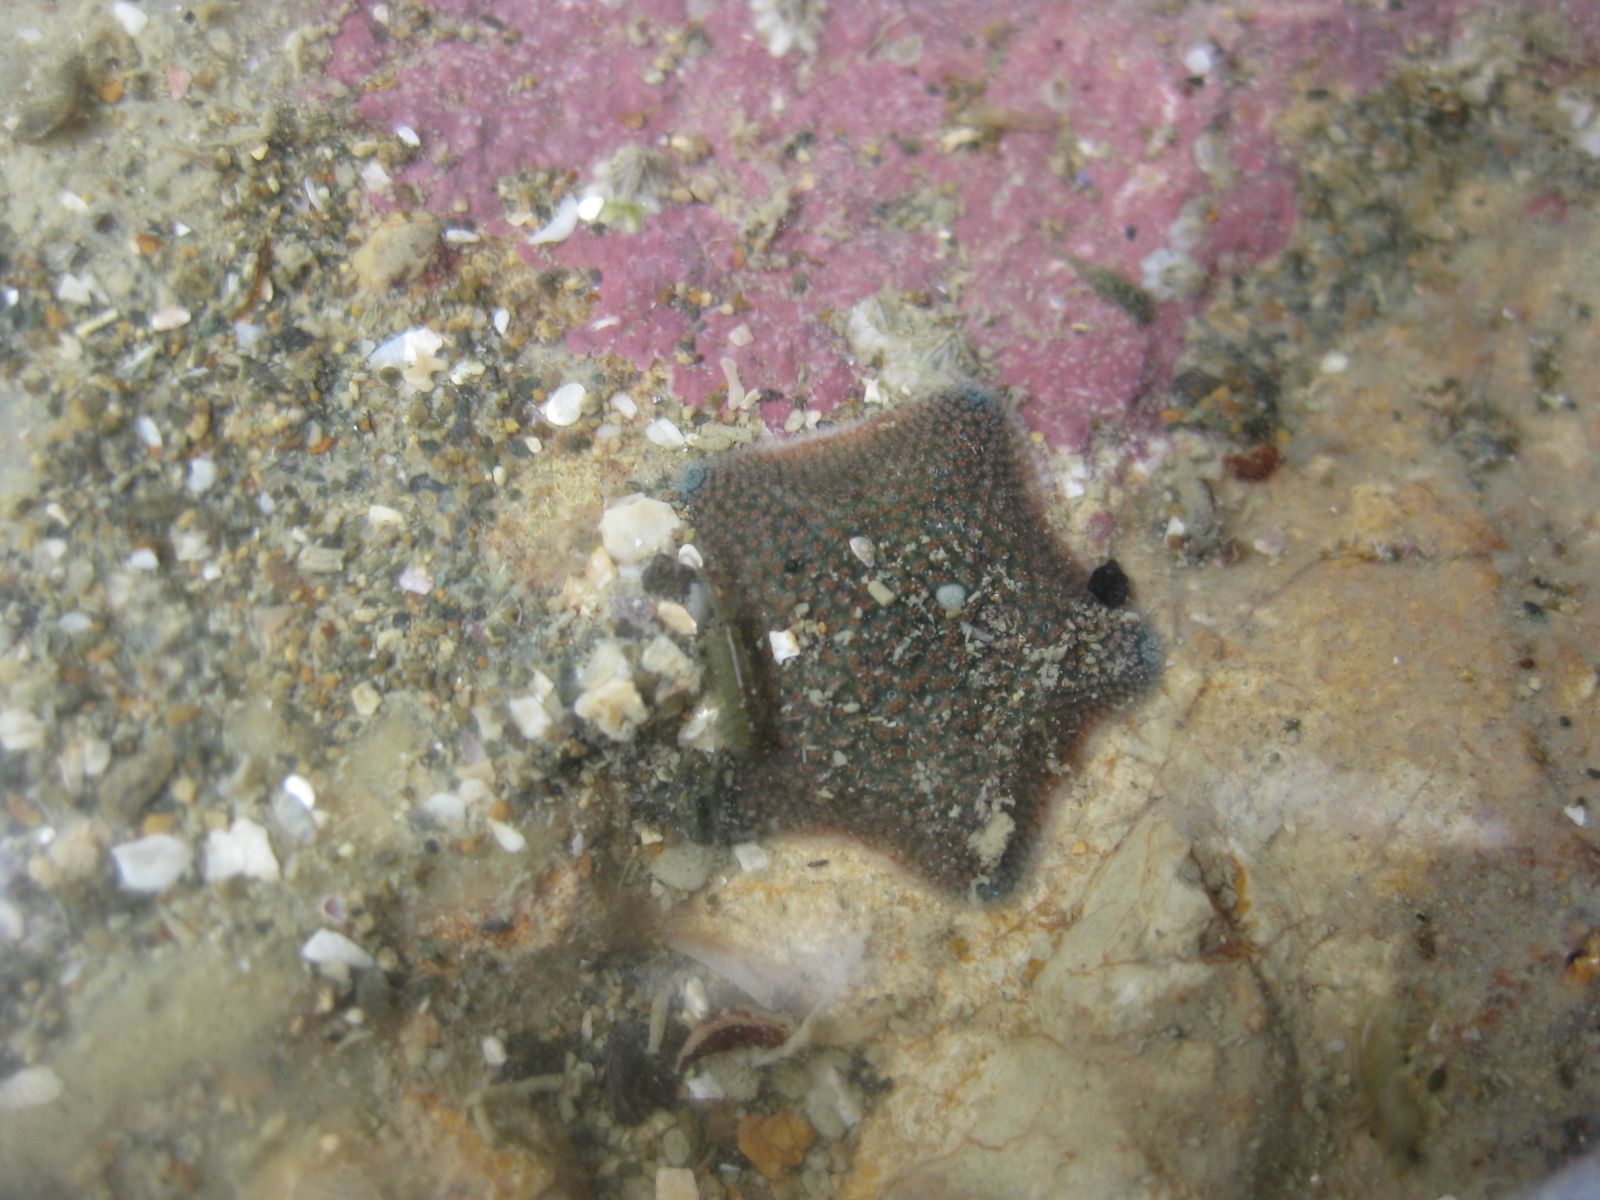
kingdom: Animalia
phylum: Echinodermata
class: Asteroidea
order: Valvatida
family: Asterinidae
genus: Patiriella
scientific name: Patiriella regularis
